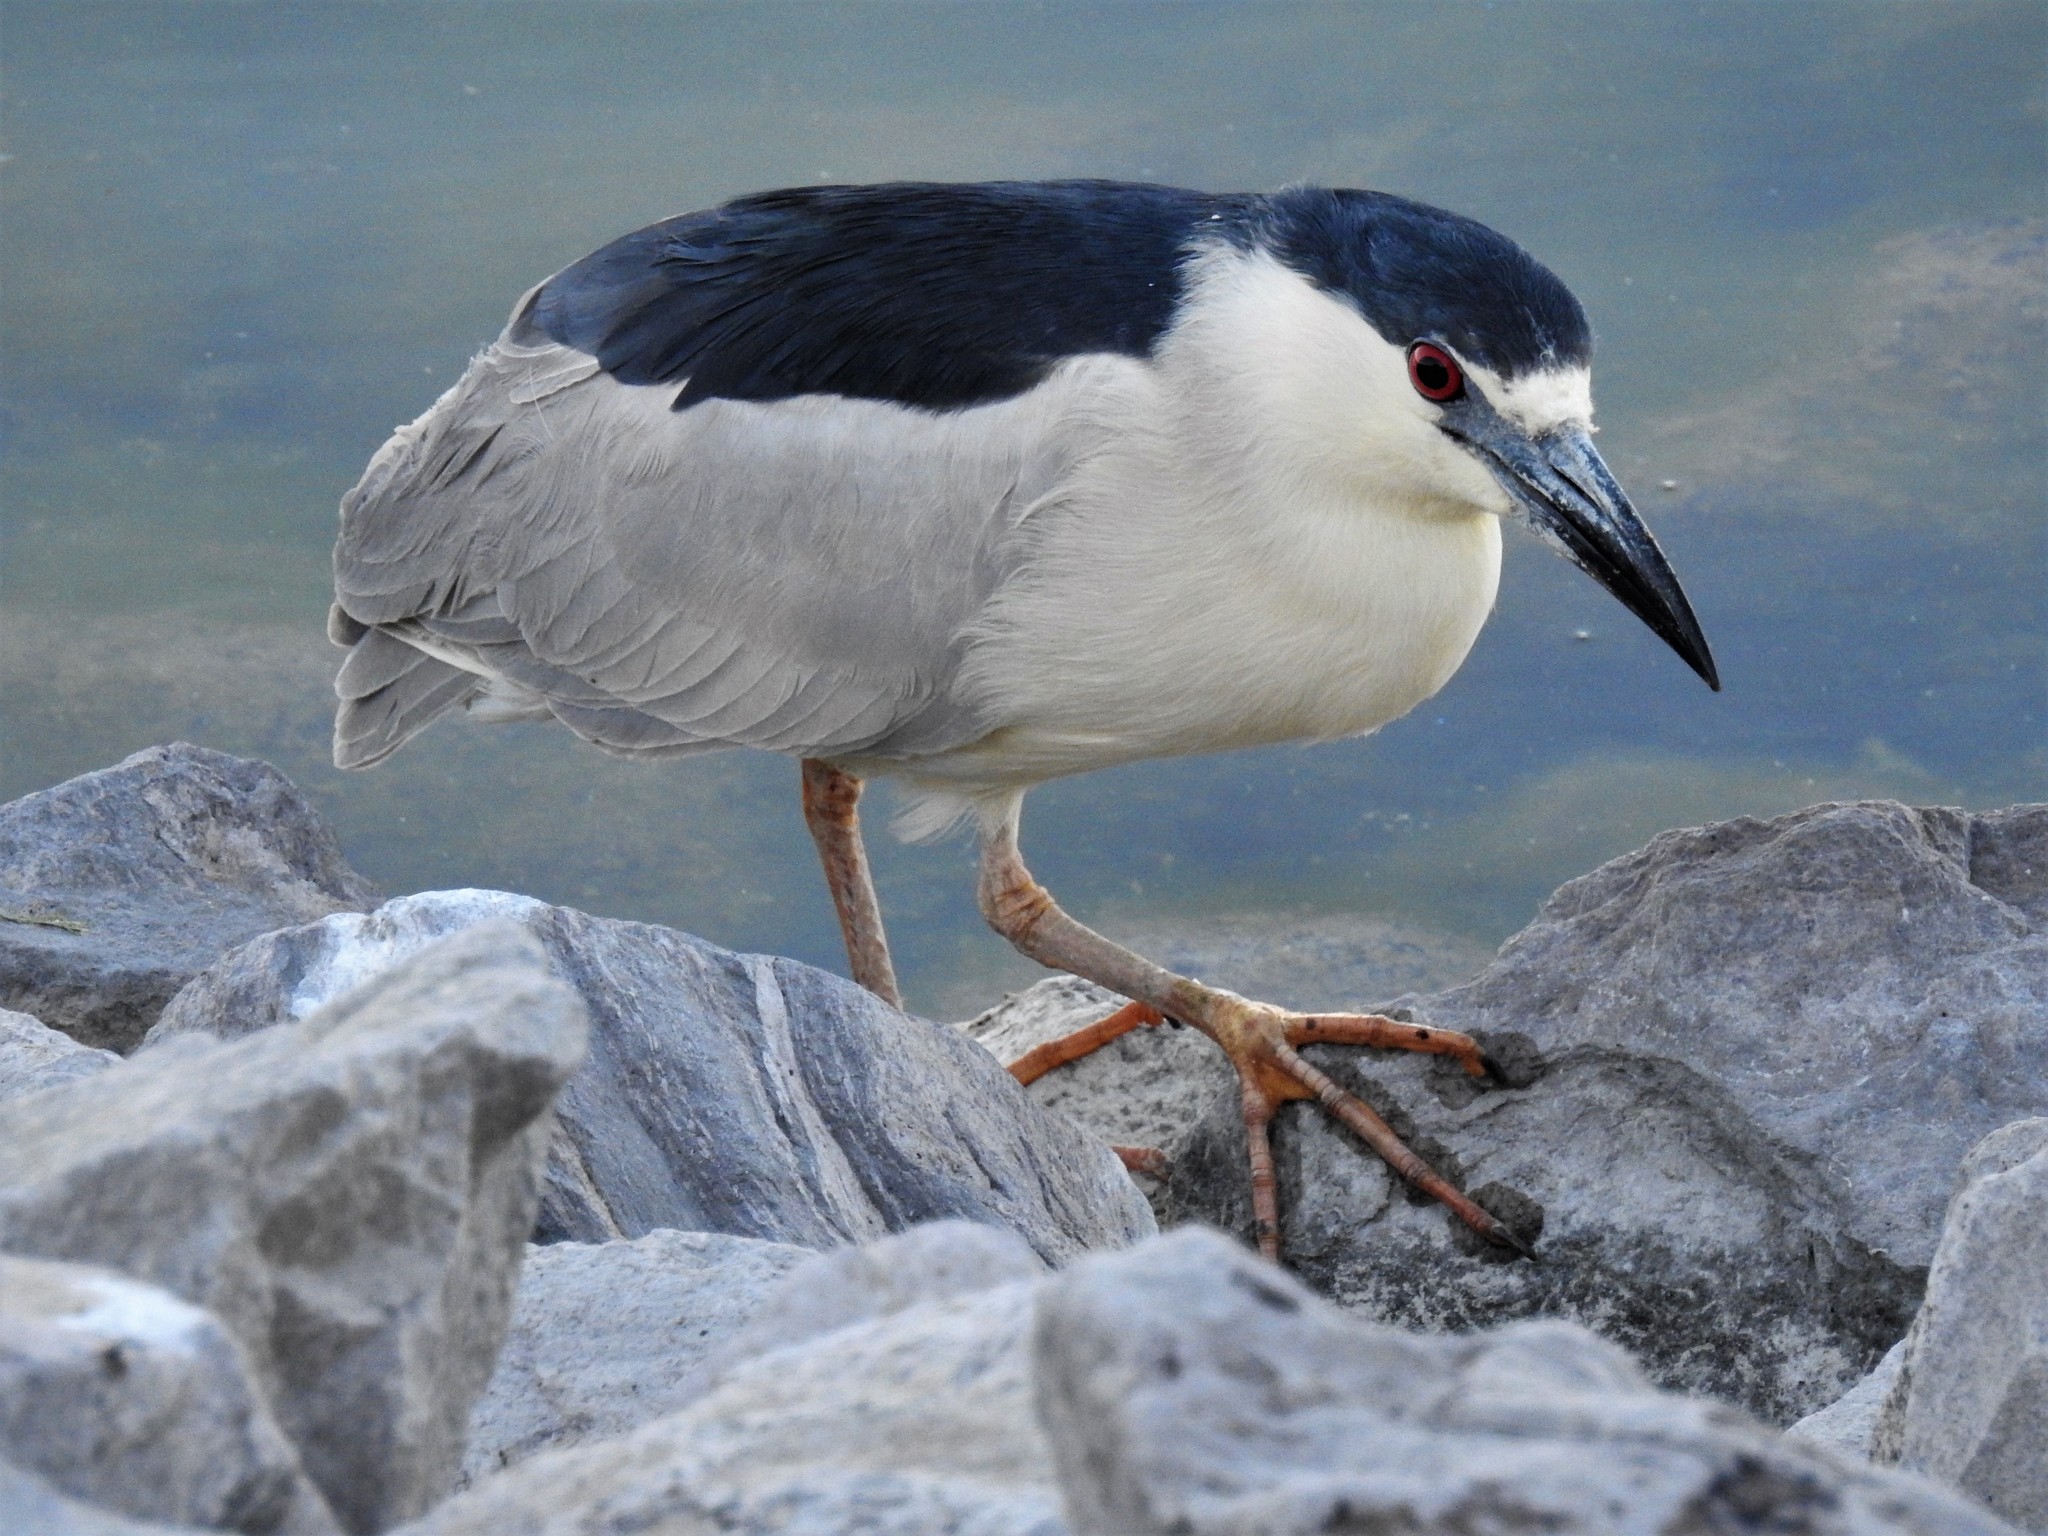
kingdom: Animalia
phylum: Chordata
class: Aves
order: Pelecaniformes
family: Ardeidae
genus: Nycticorax
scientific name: Nycticorax nycticorax
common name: Black-crowned night heron
